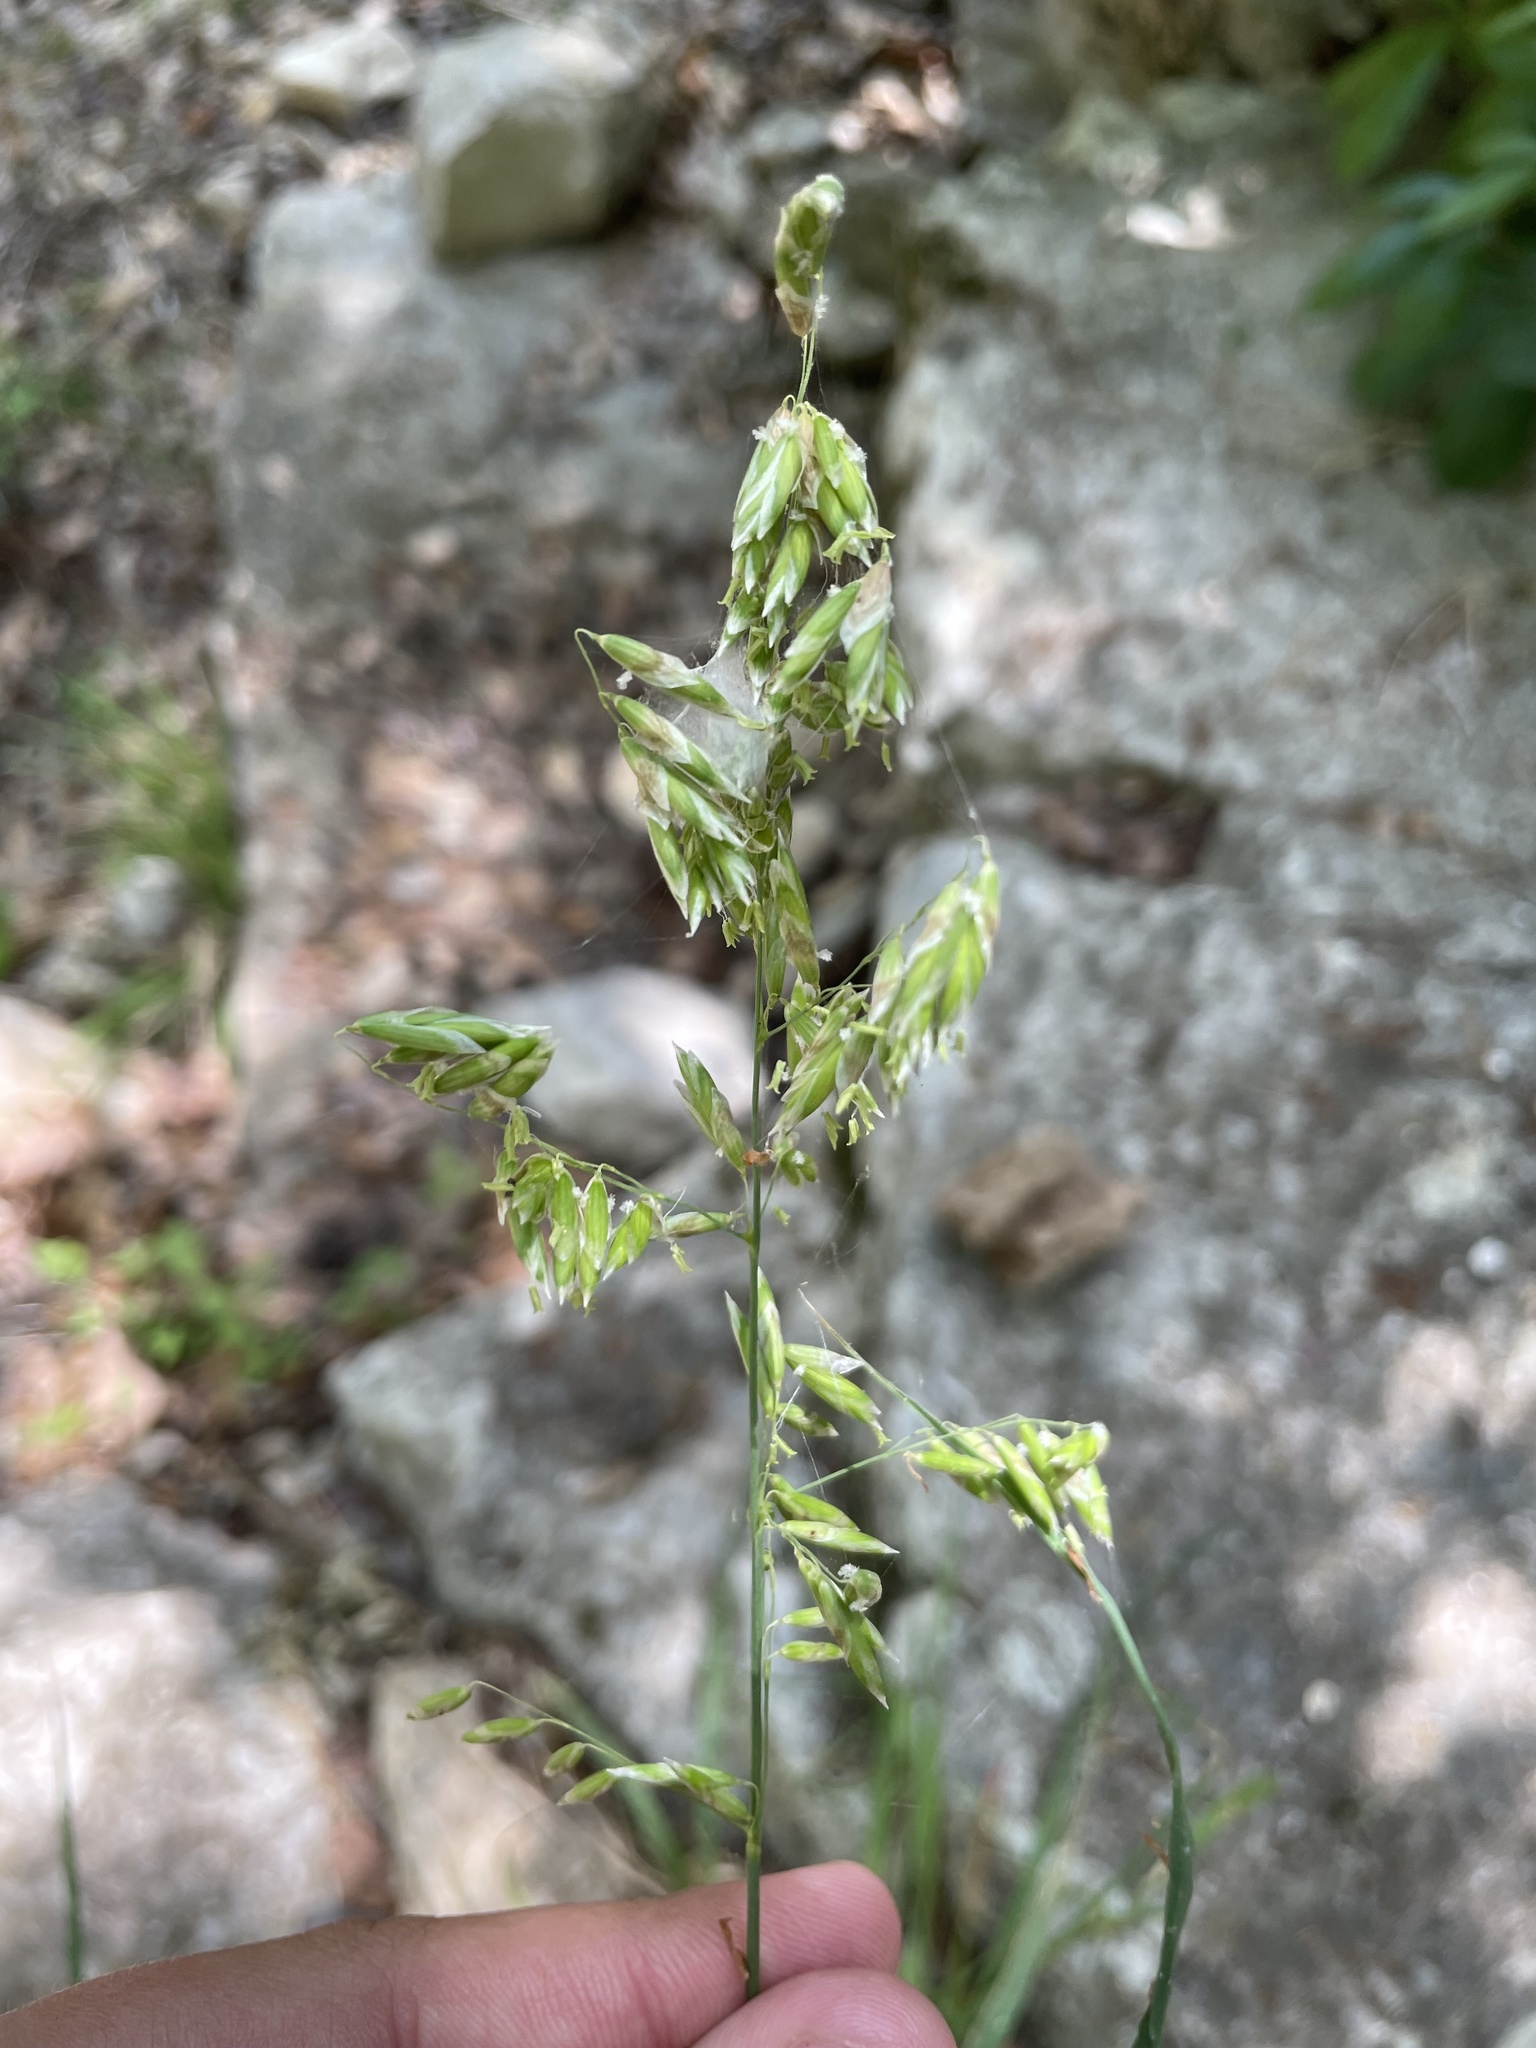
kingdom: Plantae
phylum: Tracheophyta
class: Liliopsida
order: Poales
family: Poaceae
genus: Melica
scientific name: Melica nitens
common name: Three-flower melic
